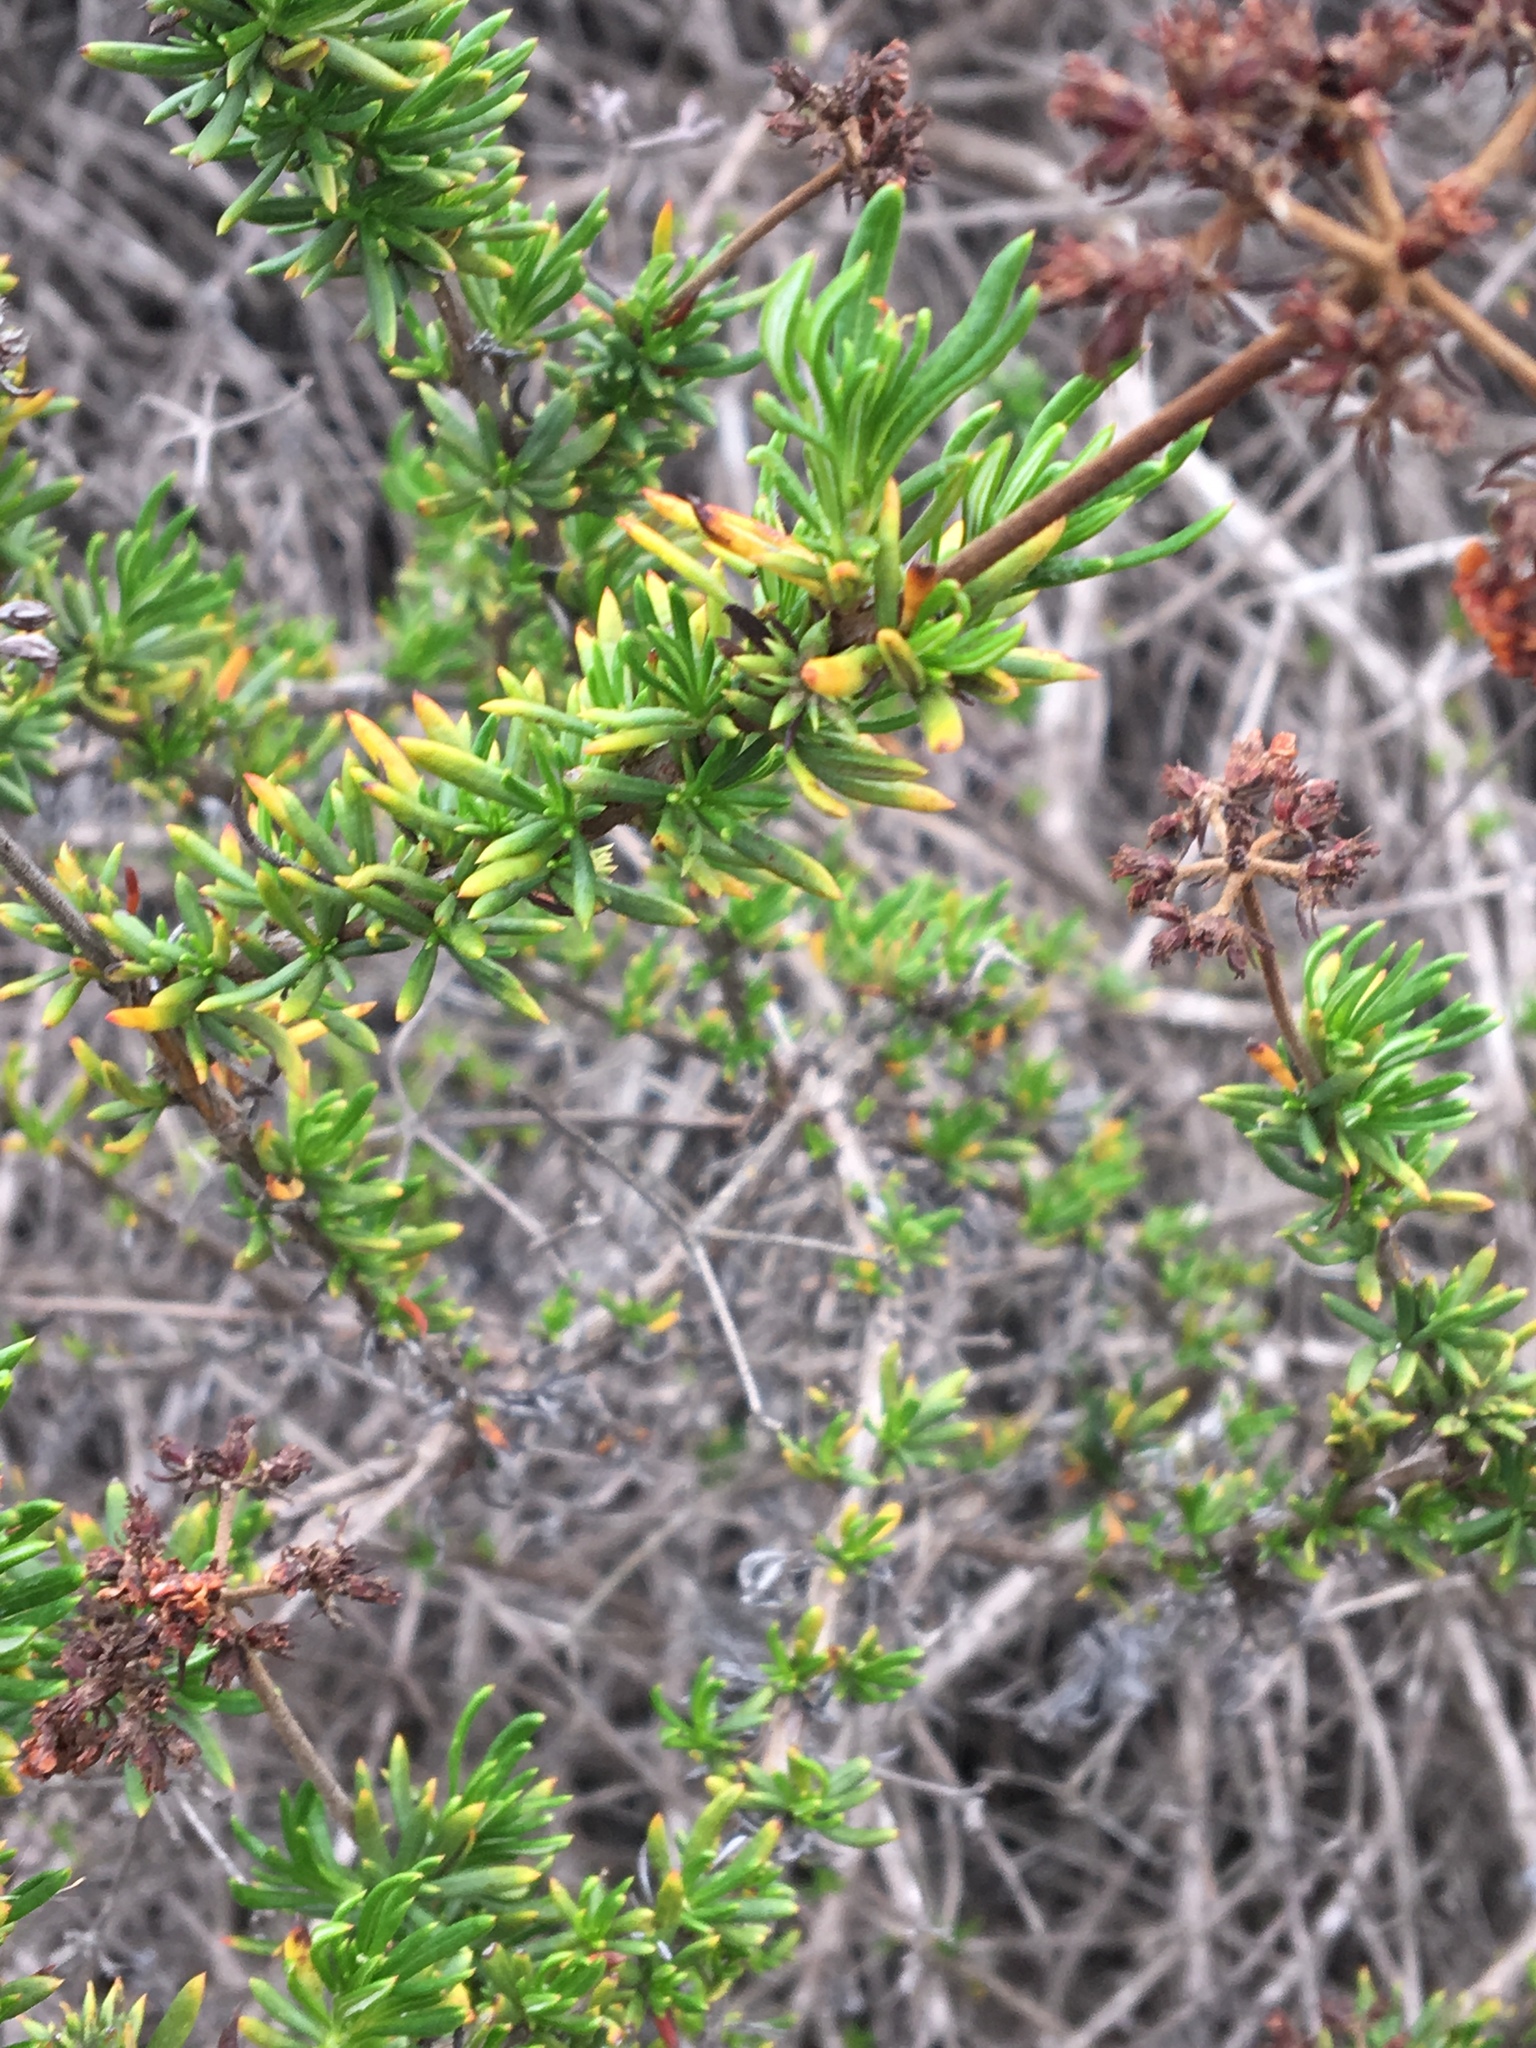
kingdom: Plantae
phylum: Tracheophyta
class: Magnoliopsida
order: Caryophyllales
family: Polygonaceae
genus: Eriogonum
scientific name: Eriogonum fasciculatum
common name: California wild buckwheat
